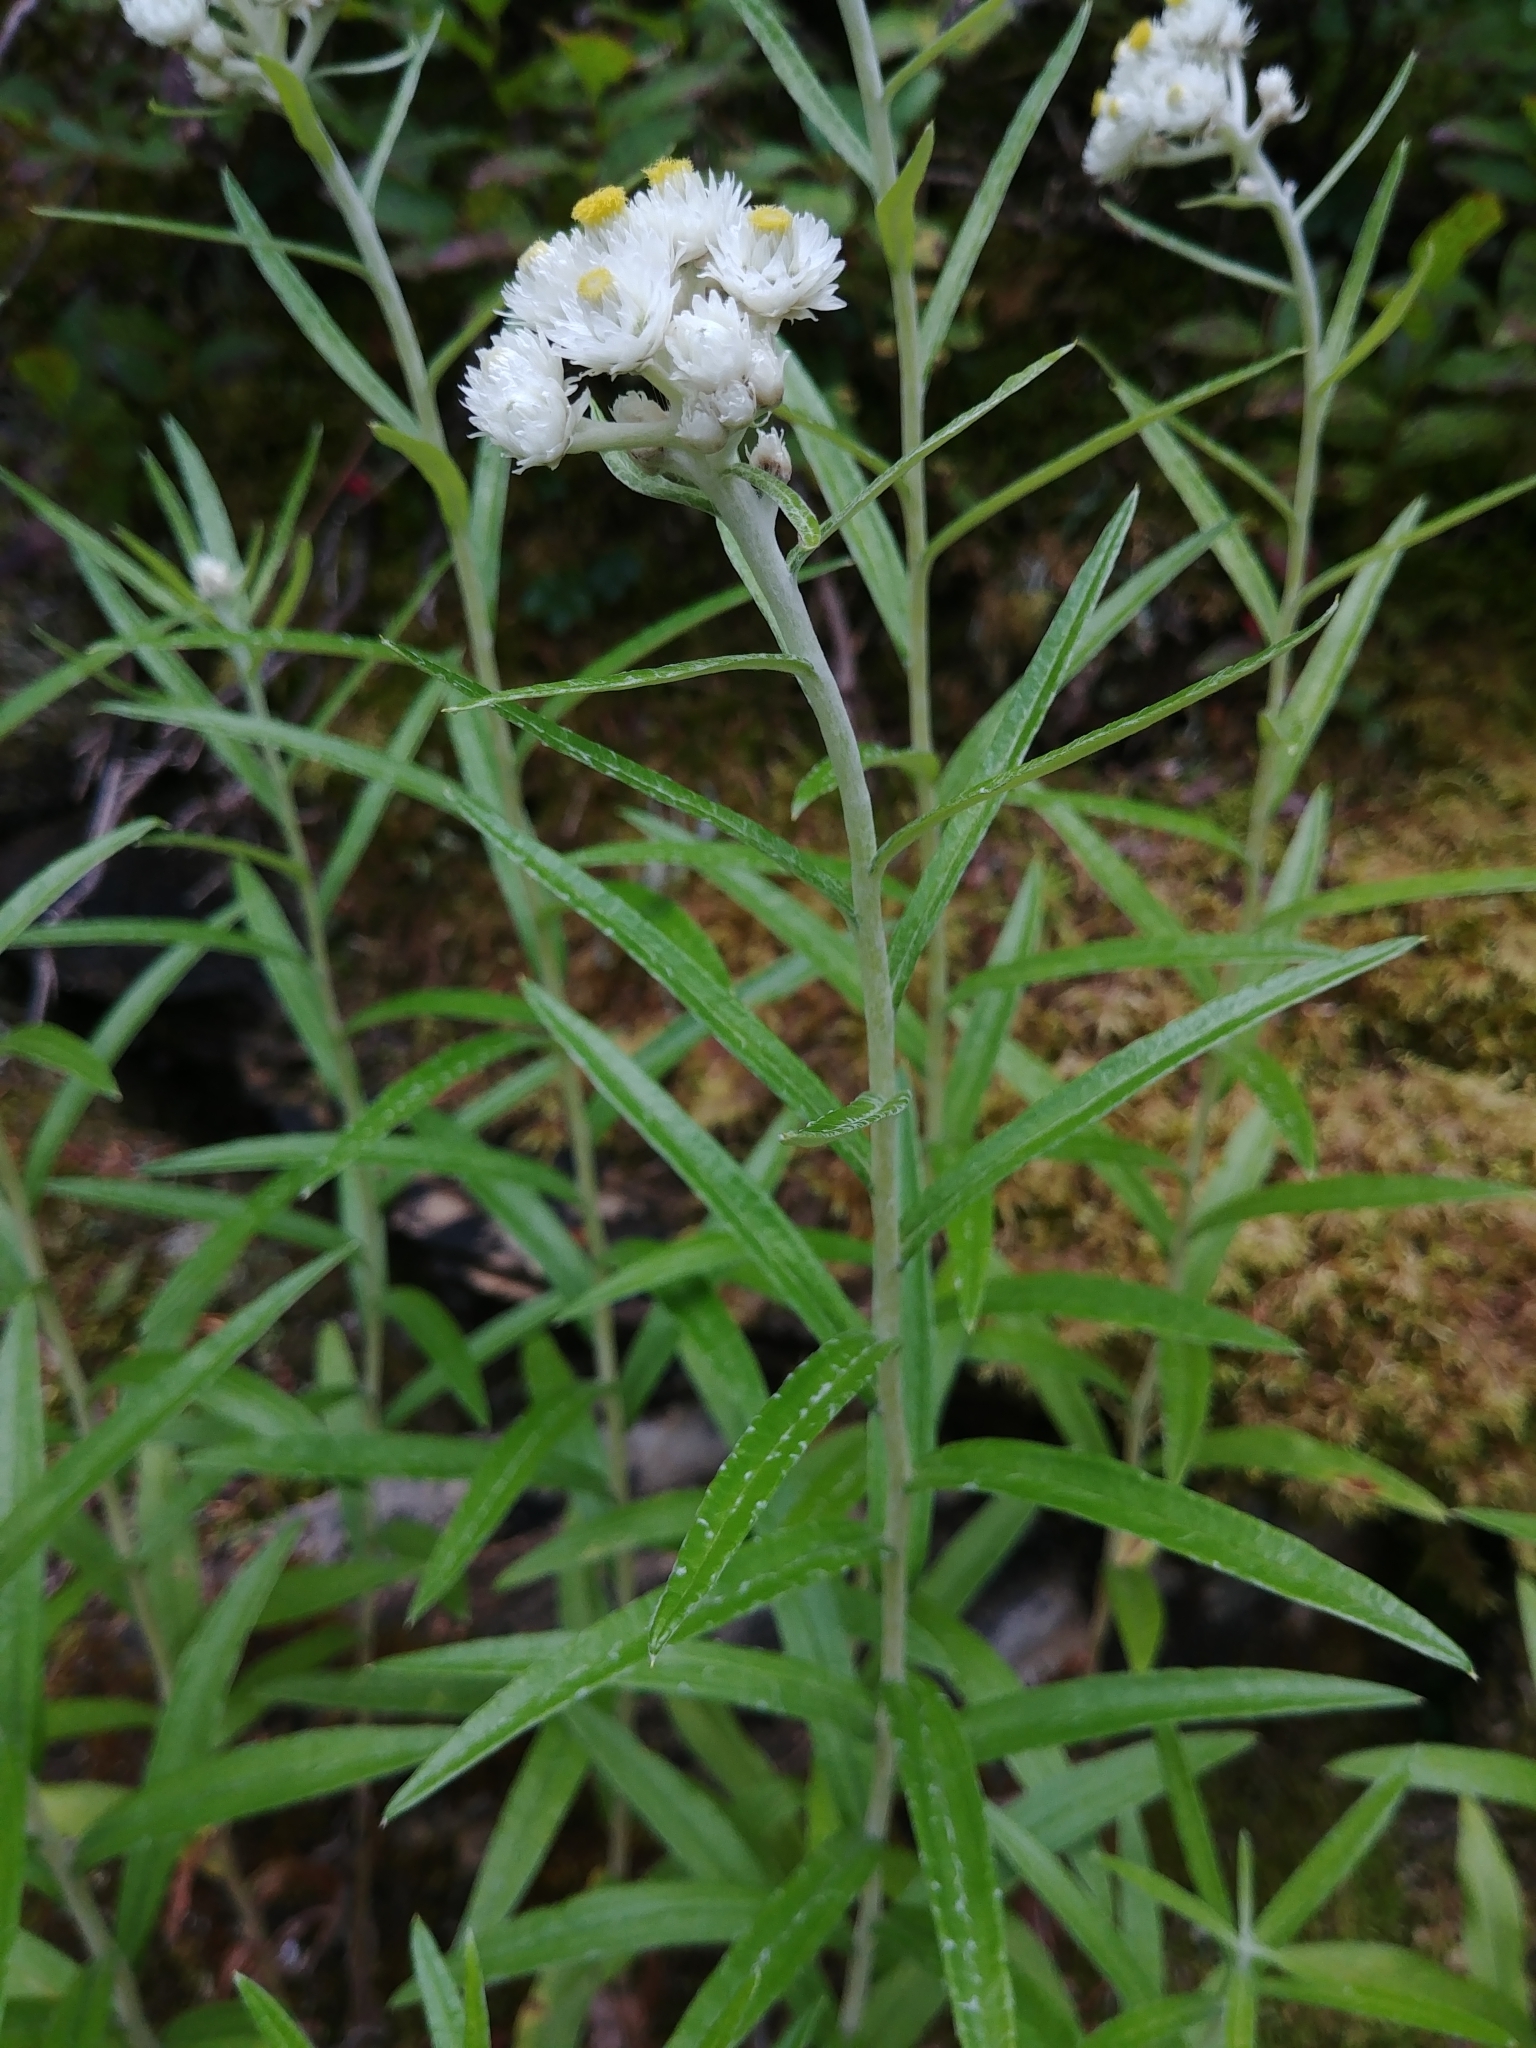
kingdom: Plantae
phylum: Tracheophyta
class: Magnoliopsida
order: Asterales
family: Asteraceae
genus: Anaphalis
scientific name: Anaphalis margaritacea
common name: Pearly everlasting
